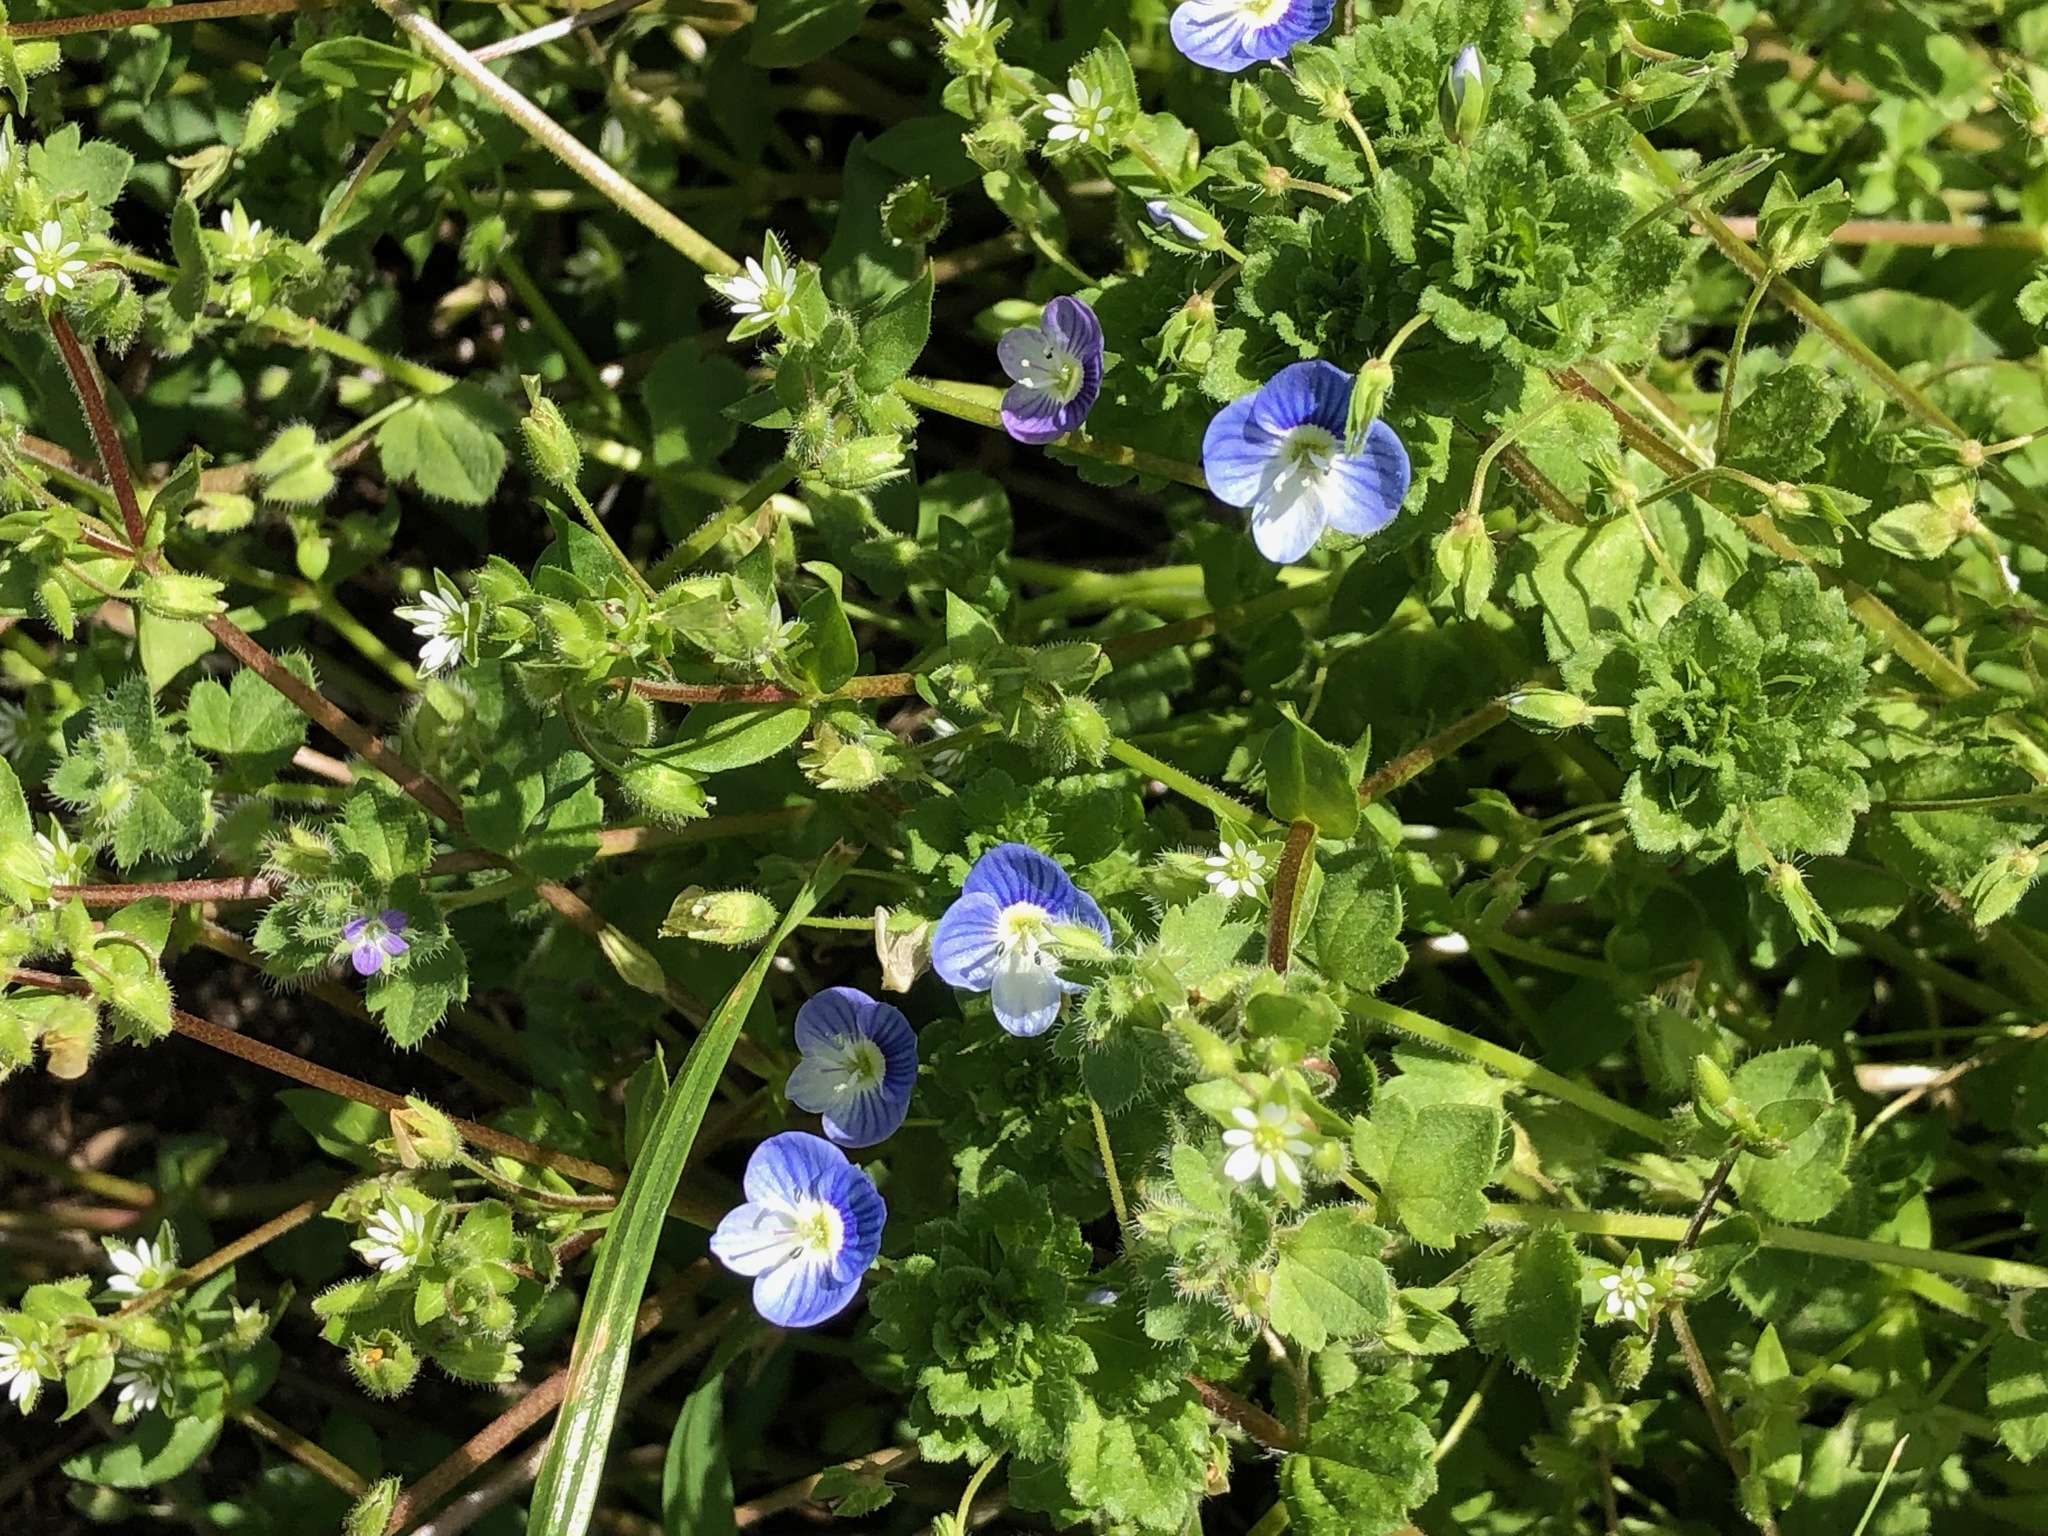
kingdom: Plantae
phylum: Tracheophyta
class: Magnoliopsida
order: Lamiales
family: Plantaginaceae
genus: Veronica
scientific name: Veronica persica
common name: Common field-speedwell
